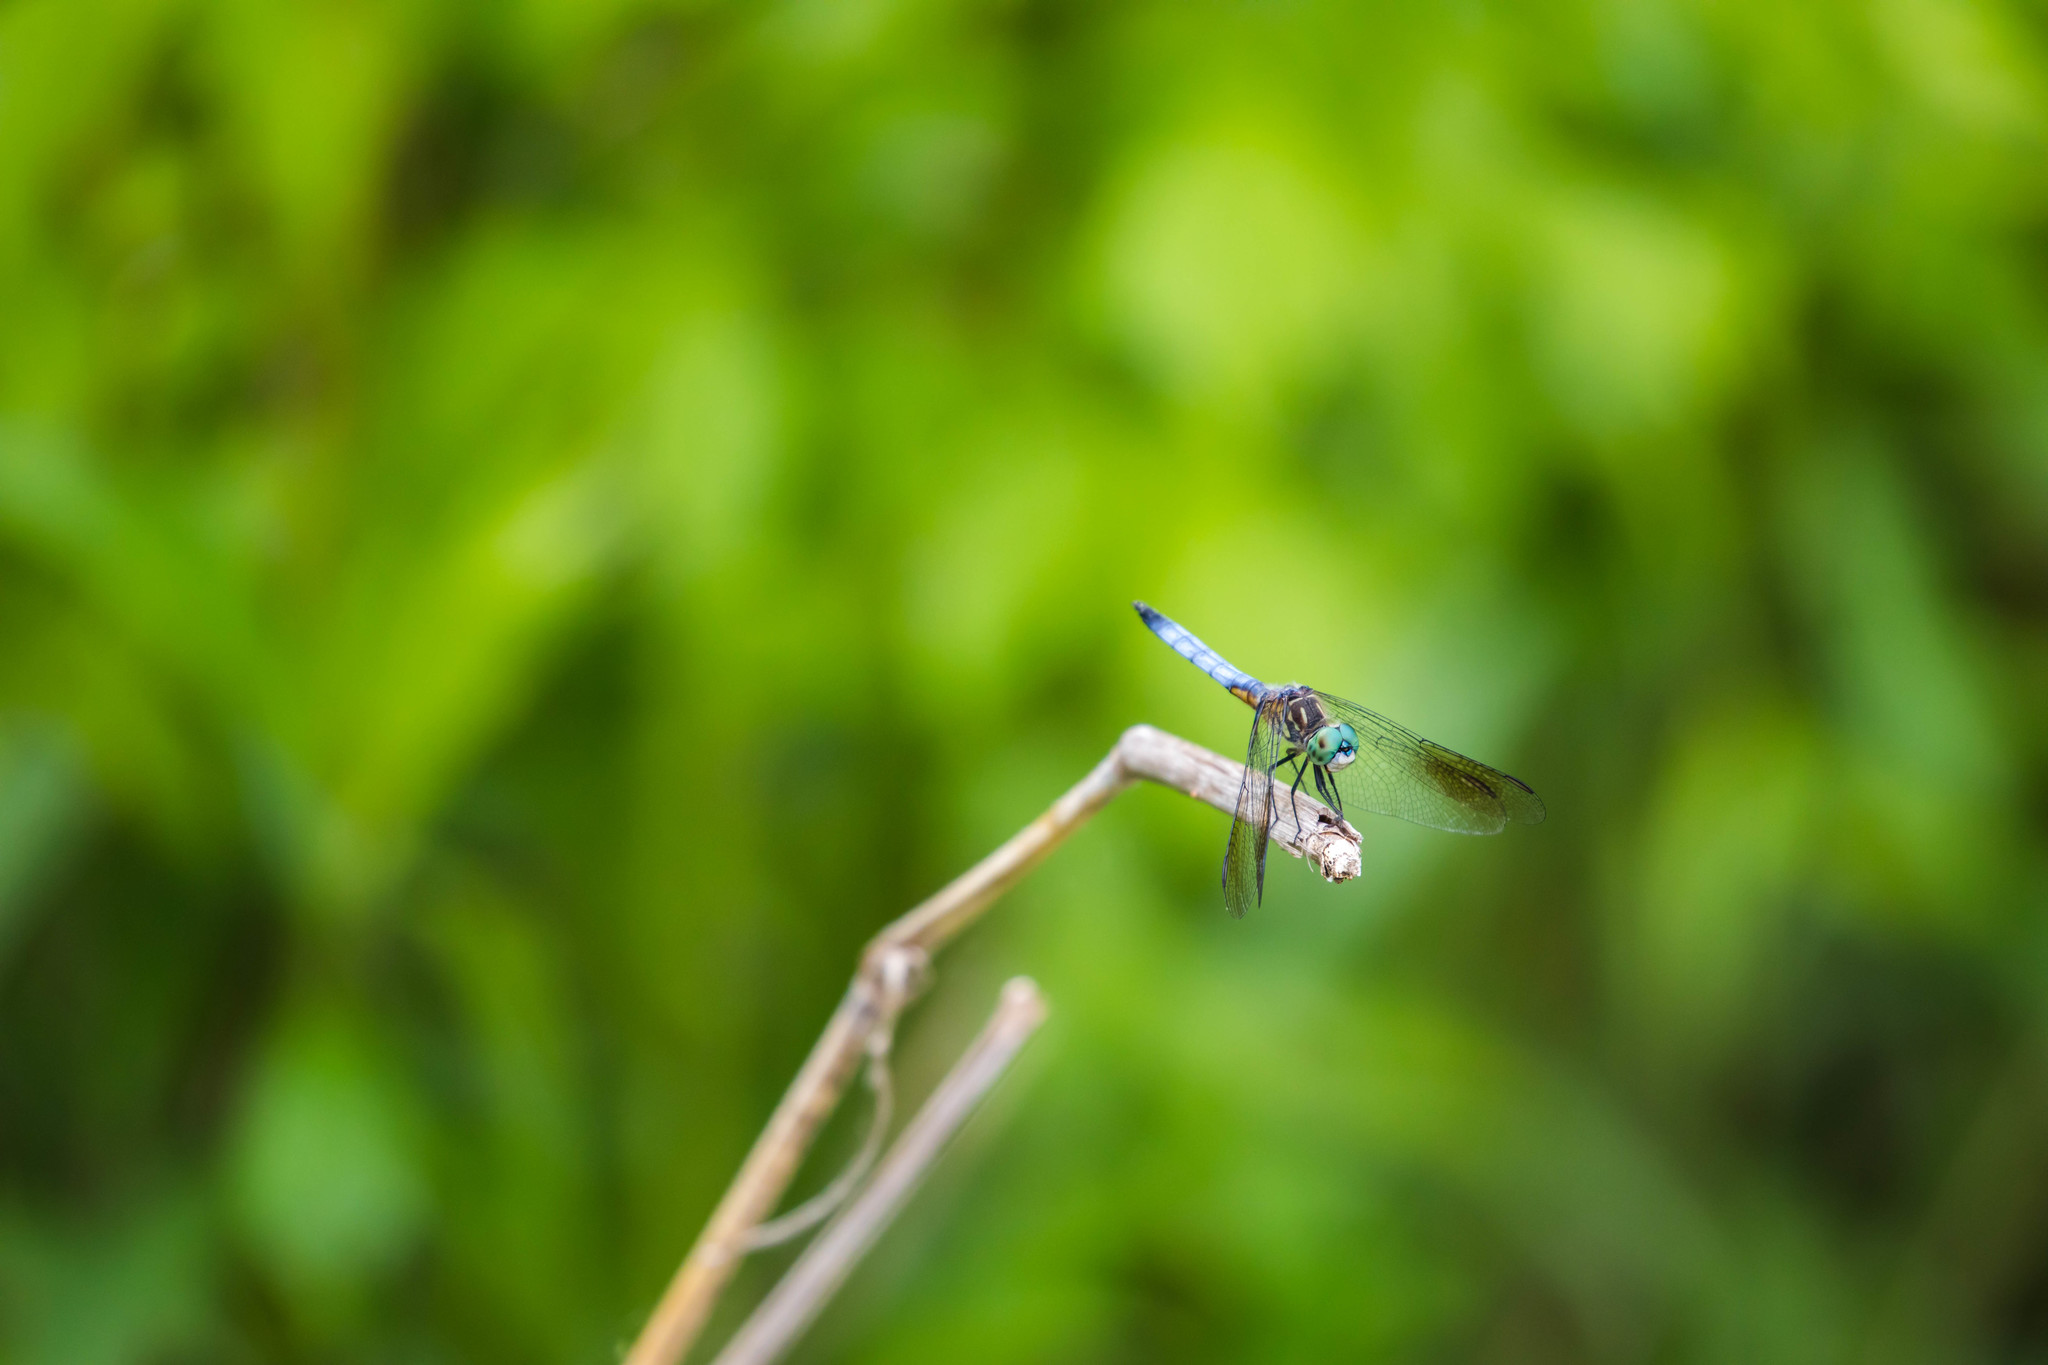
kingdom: Animalia
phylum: Arthropoda
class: Insecta
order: Odonata
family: Libellulidae
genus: Pachydiplax
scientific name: Pachydiplax longipennis
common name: Blue dasher
